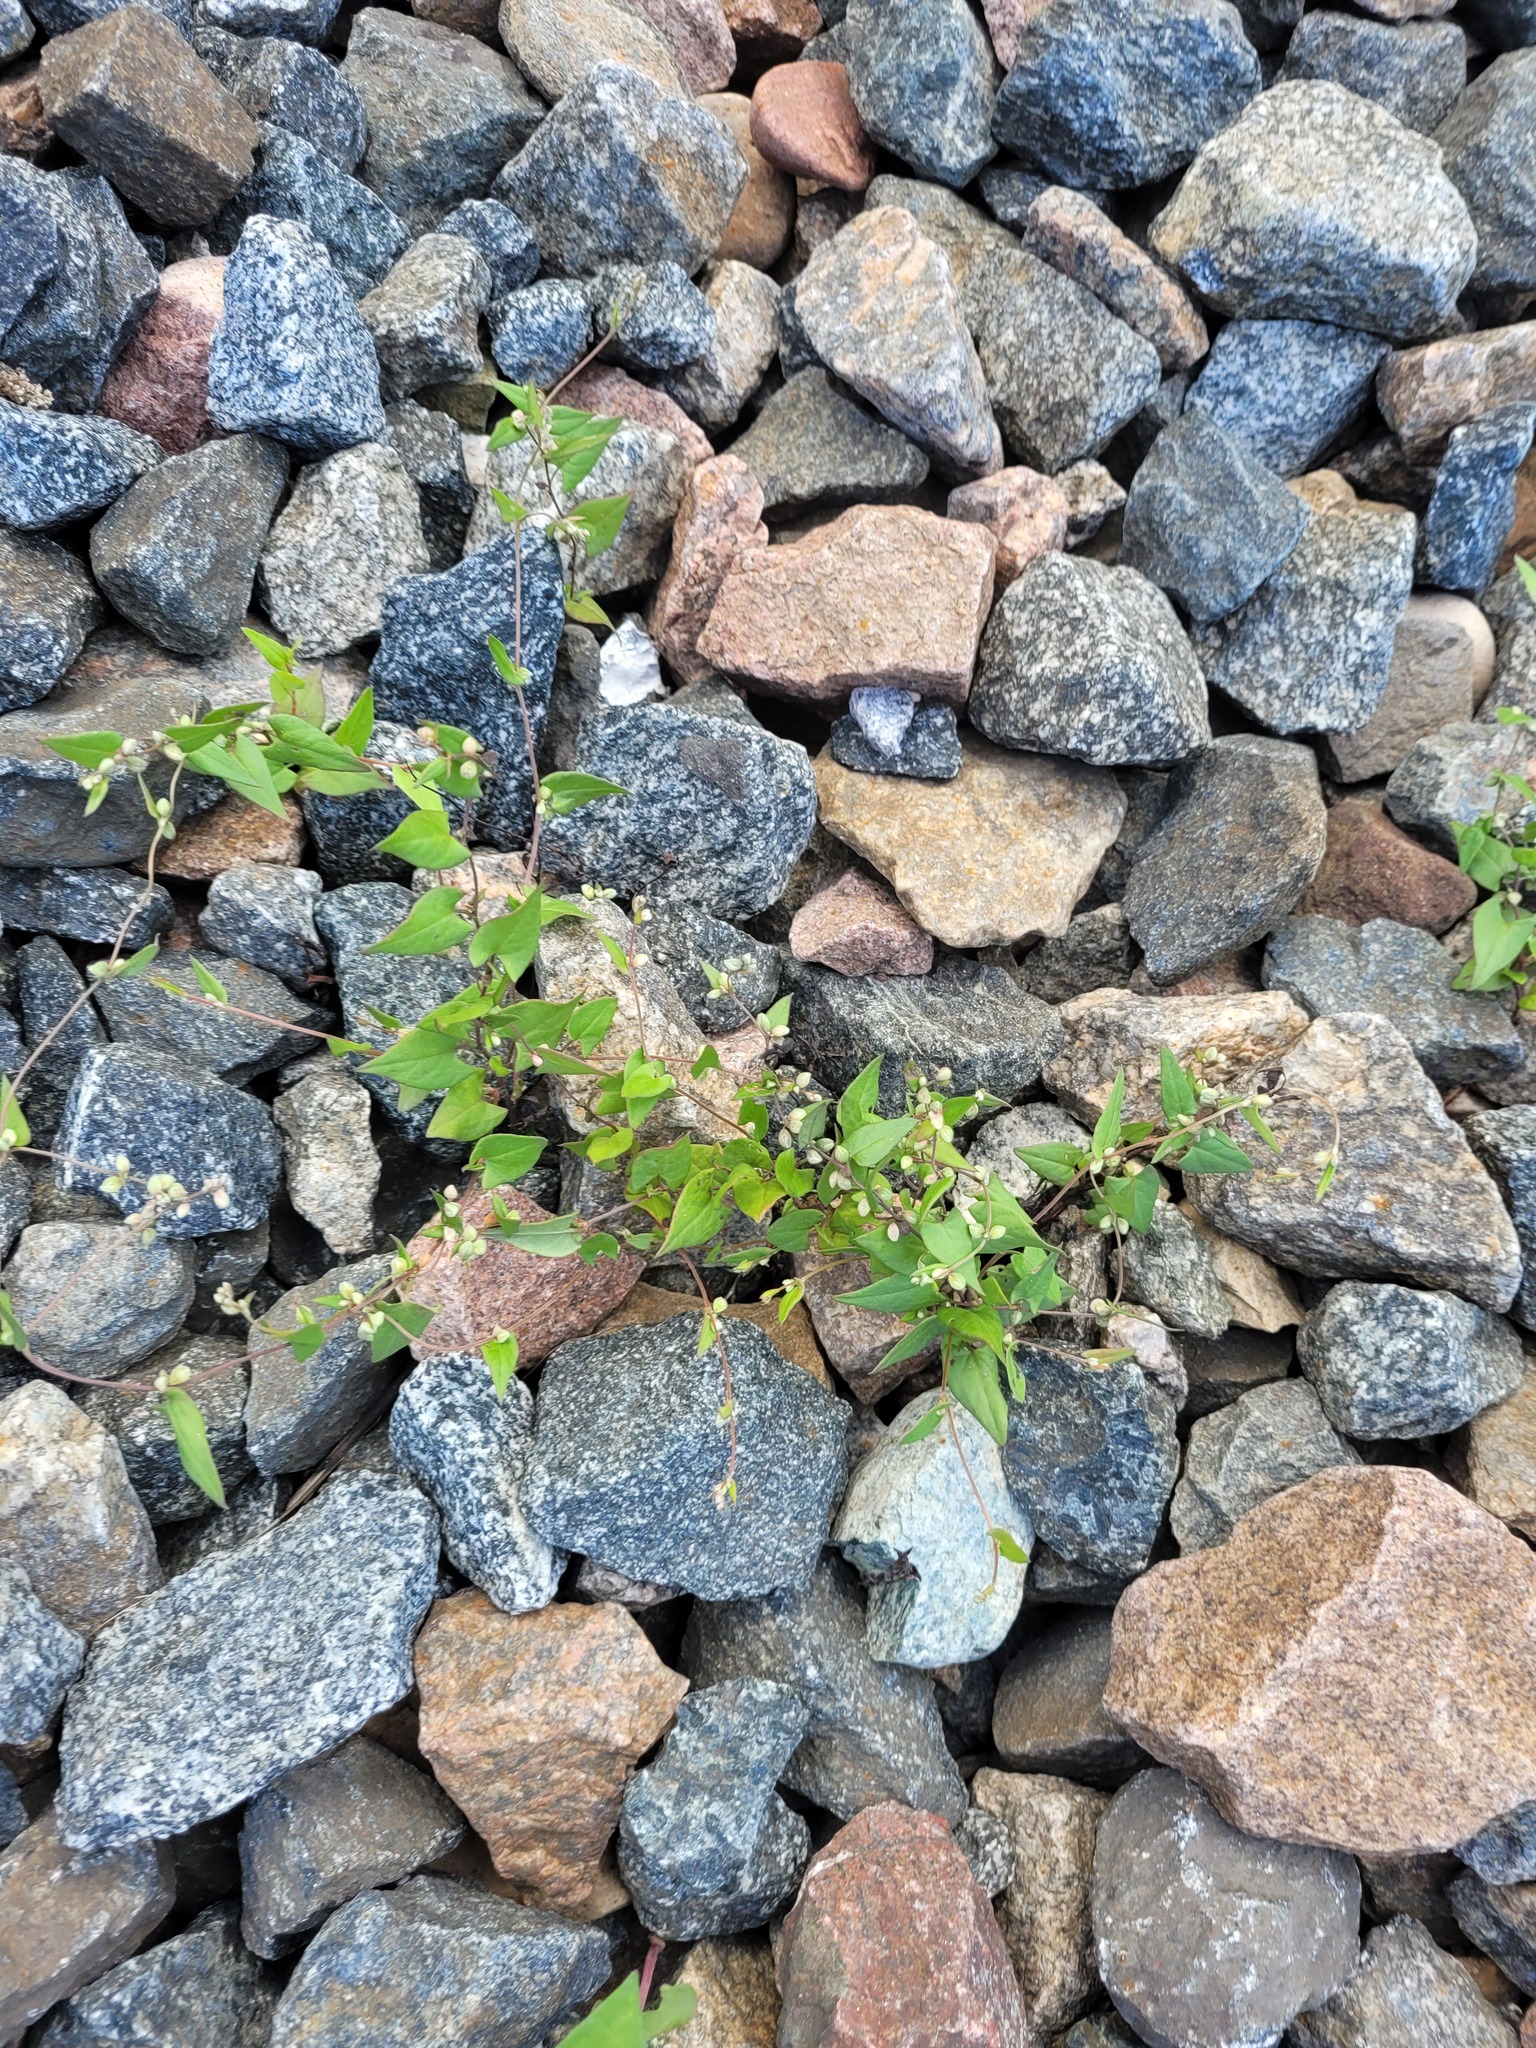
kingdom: Plantae
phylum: Tracheophyta
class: Magnoliopsida
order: Caryophyllales
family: Polygonaceae
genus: Fallopia
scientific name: Fallopia convolvulus
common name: Black bindweed
